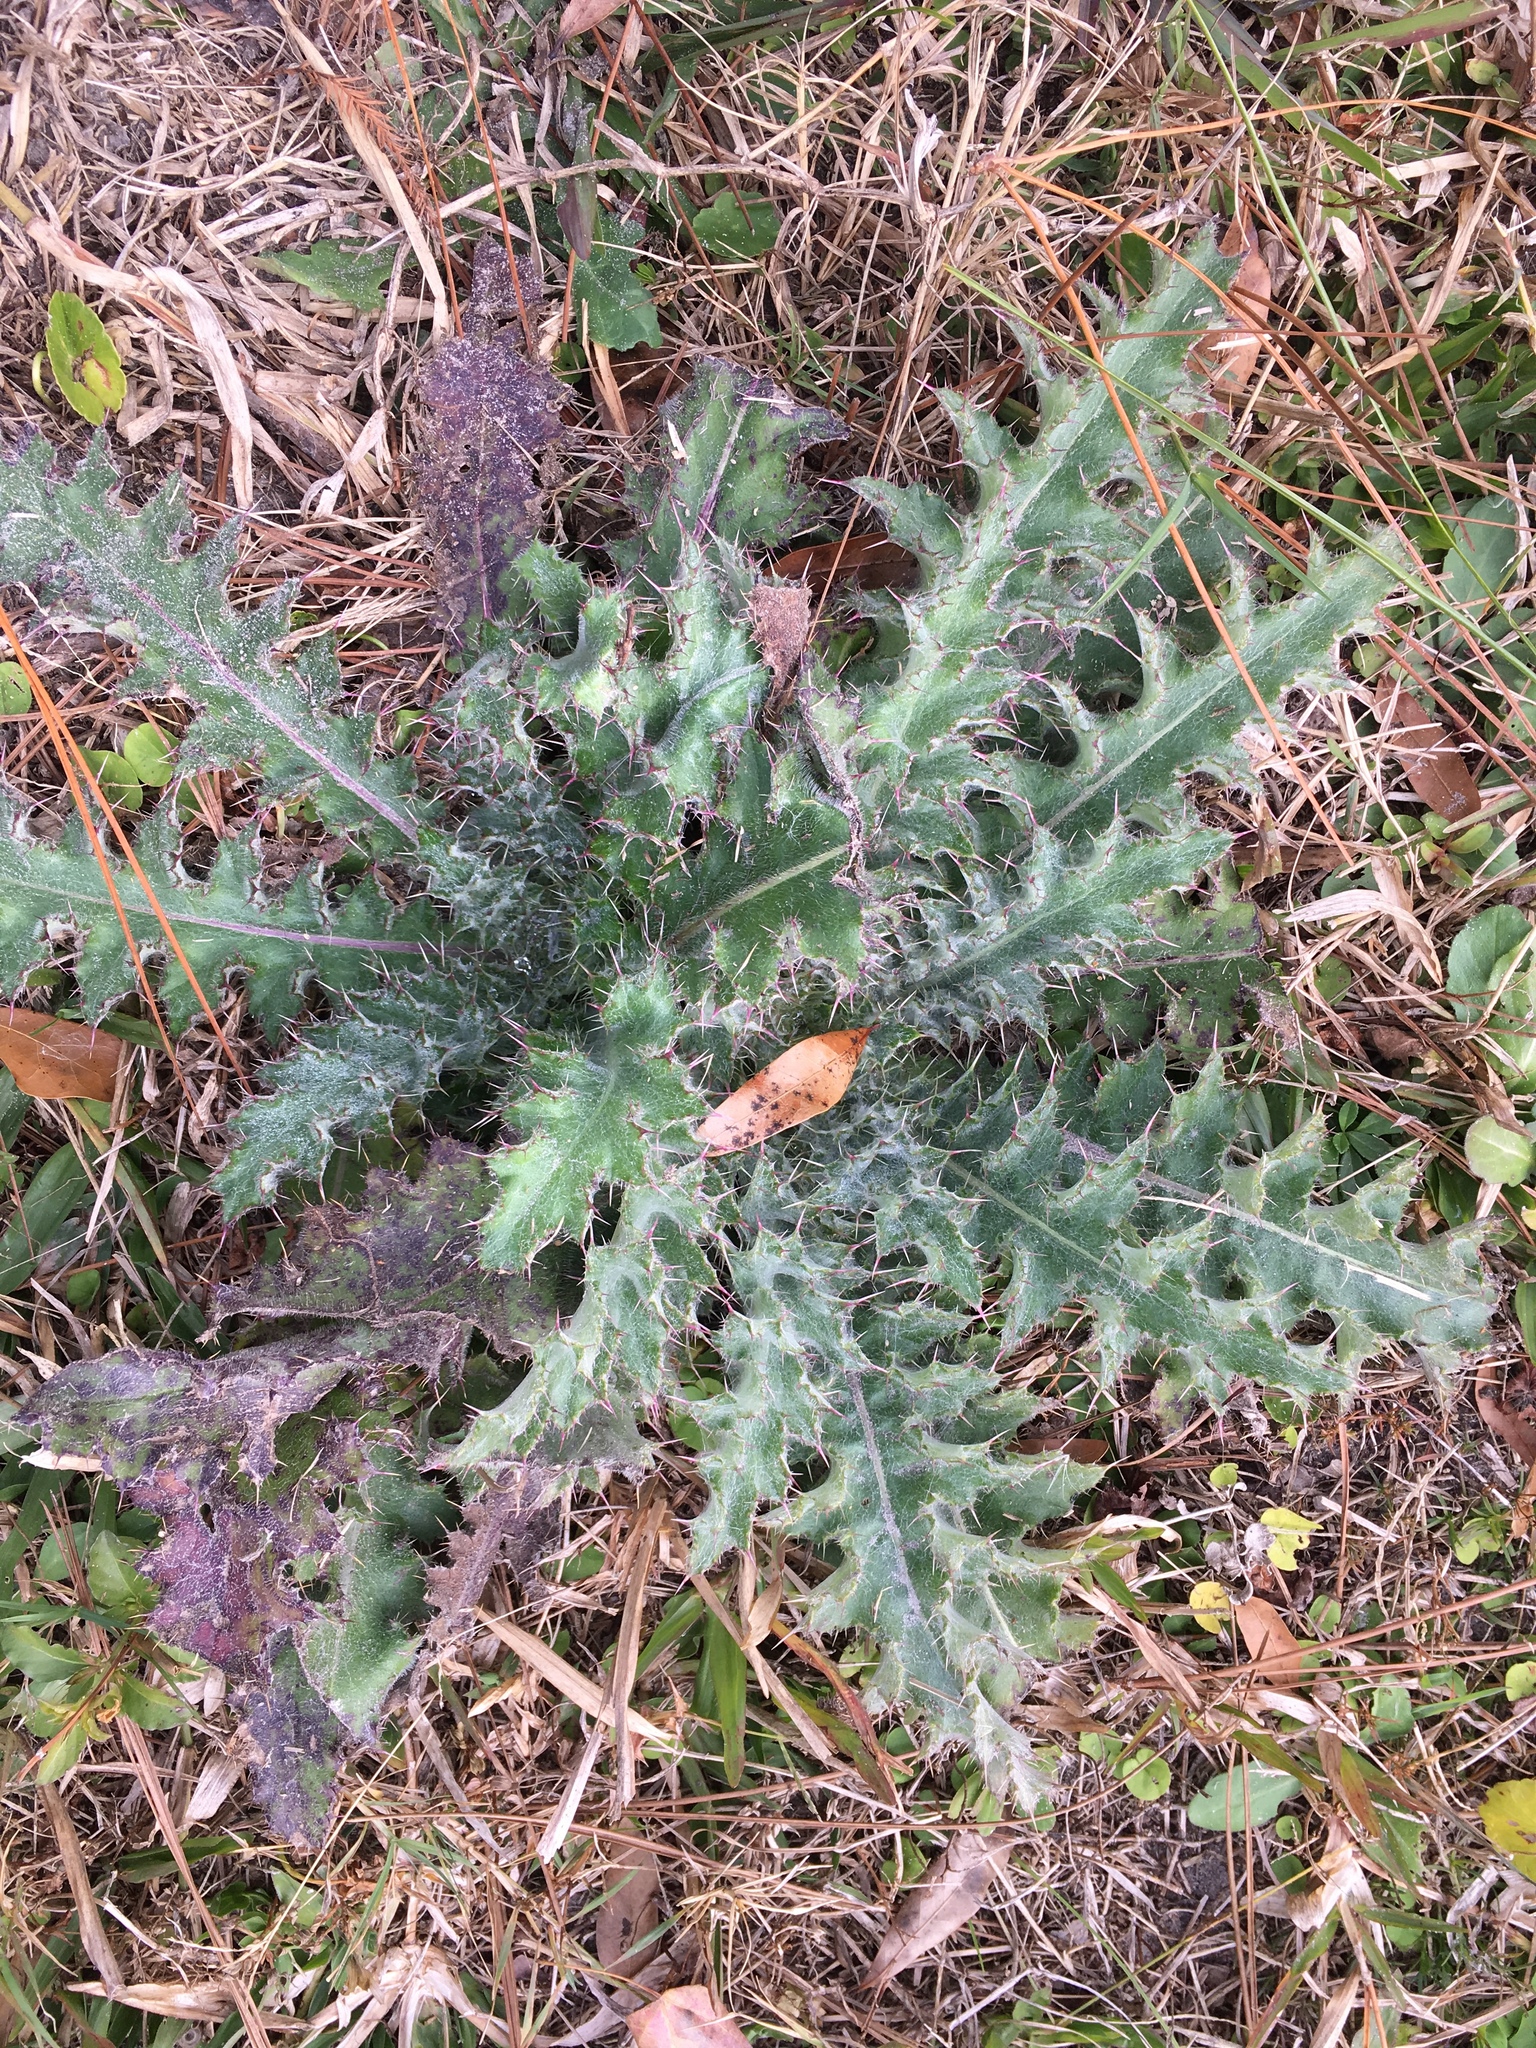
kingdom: Plantae
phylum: Tracheophyta
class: Magnoliopsida
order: Asterales
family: Asteraceae
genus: Cirsium
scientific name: Cirsium horridulum
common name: Bristly thistle
